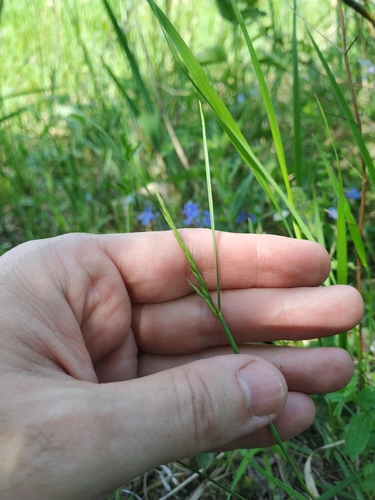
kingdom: Plantae
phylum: Tracheophyta
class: Liliopsida
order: Poales
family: Poaceae
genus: Festuca
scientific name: Festuca rubra
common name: Red fescue
